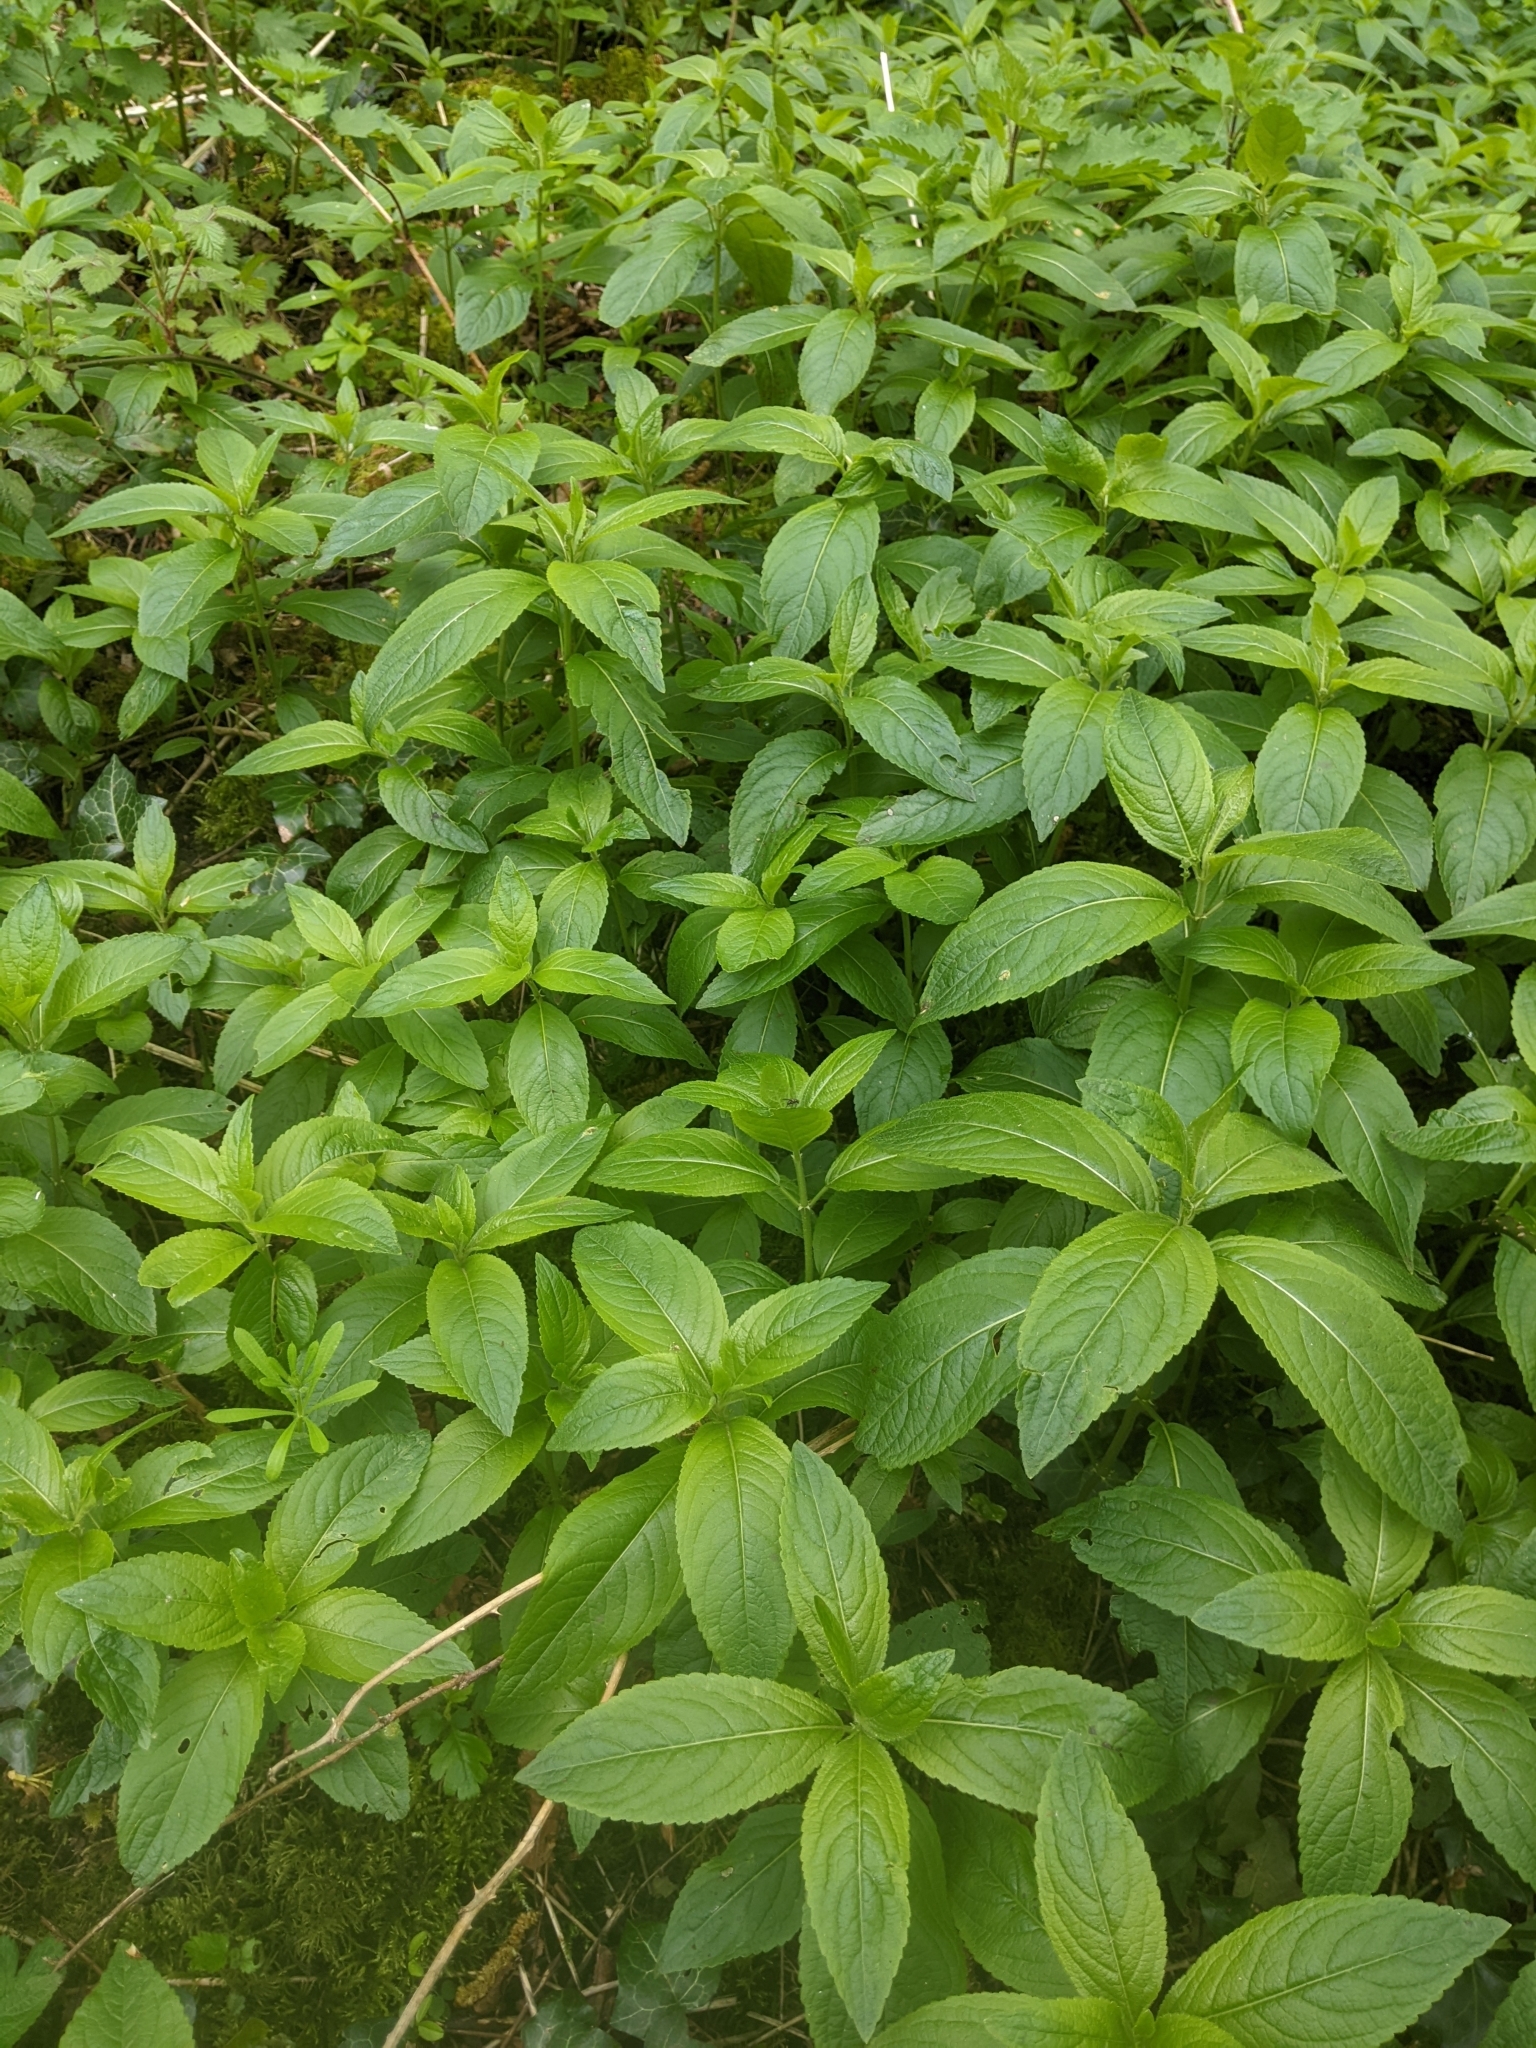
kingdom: Plantae
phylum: Tracheophyta
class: Magnoliopsida
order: Malpighiales
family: Euphorbiaceae
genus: Mercurialis
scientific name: Mercurialis perennis
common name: Dog mercury
